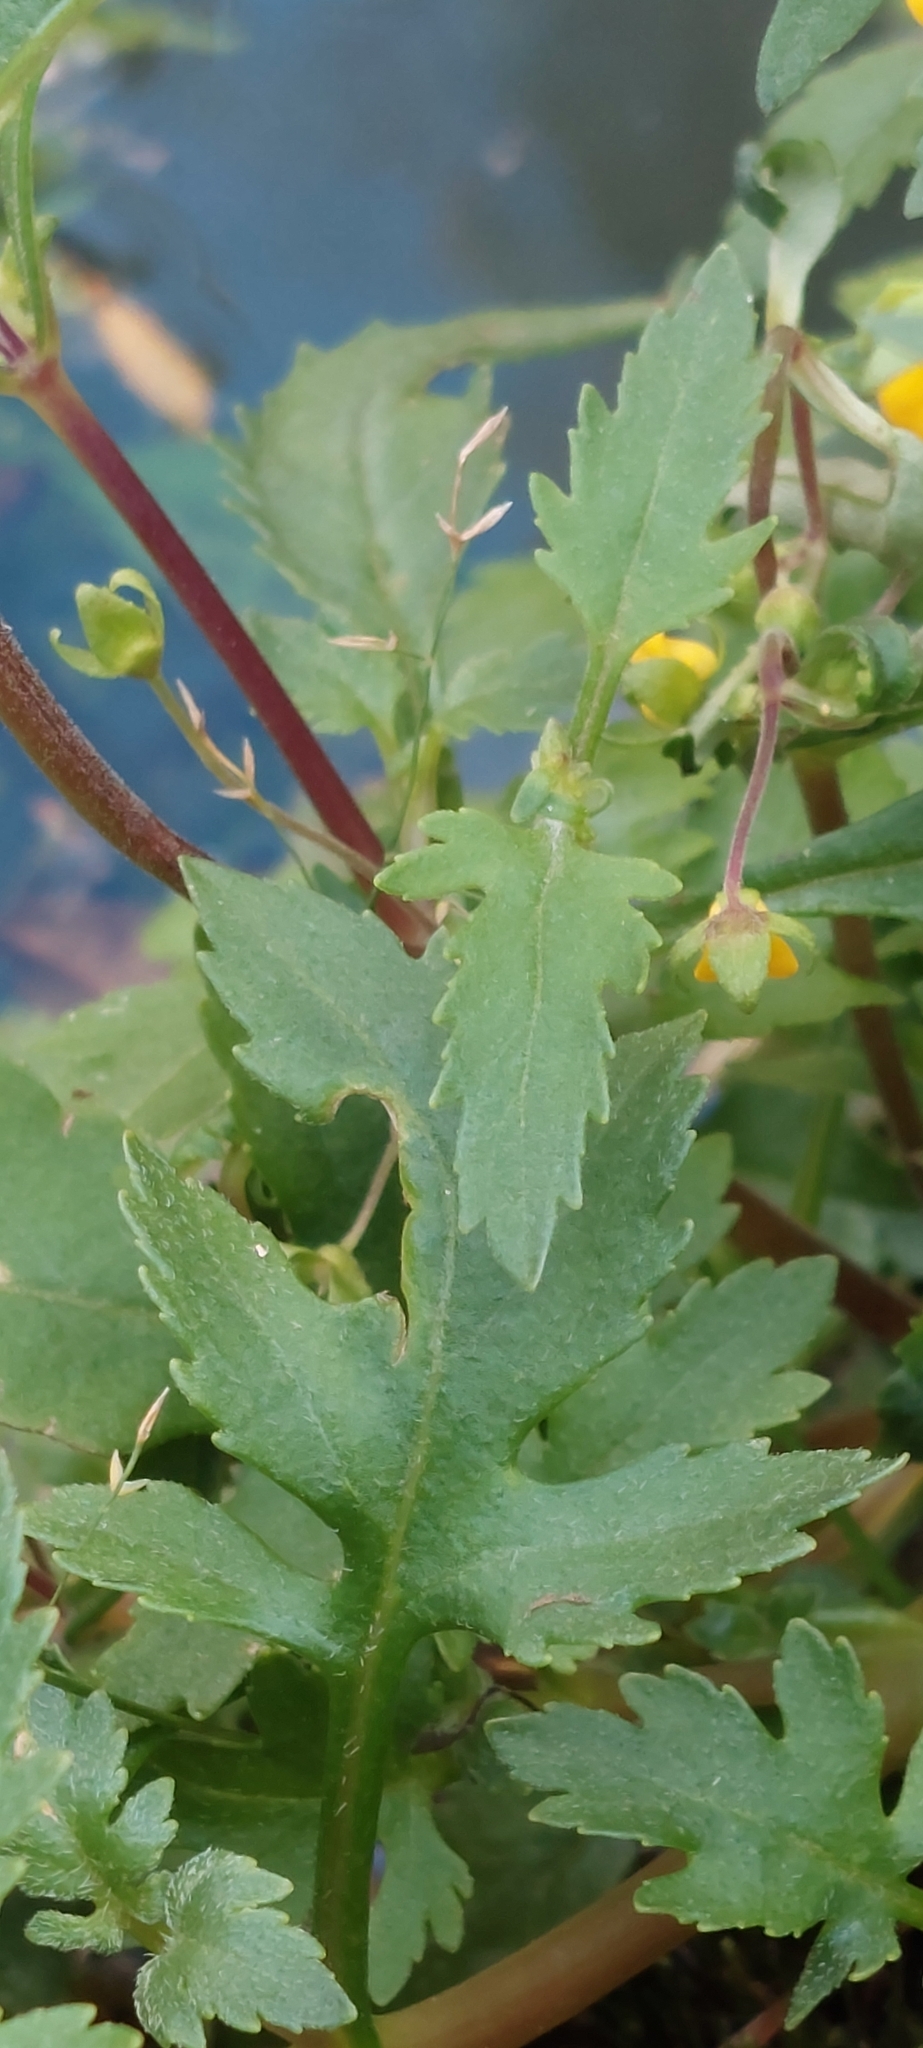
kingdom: Plantae
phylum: Tracheophyta
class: Magnoliopsida
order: Lamiales
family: Calceolariaceae
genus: Calceolaria
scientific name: Calceolaria mexicana
